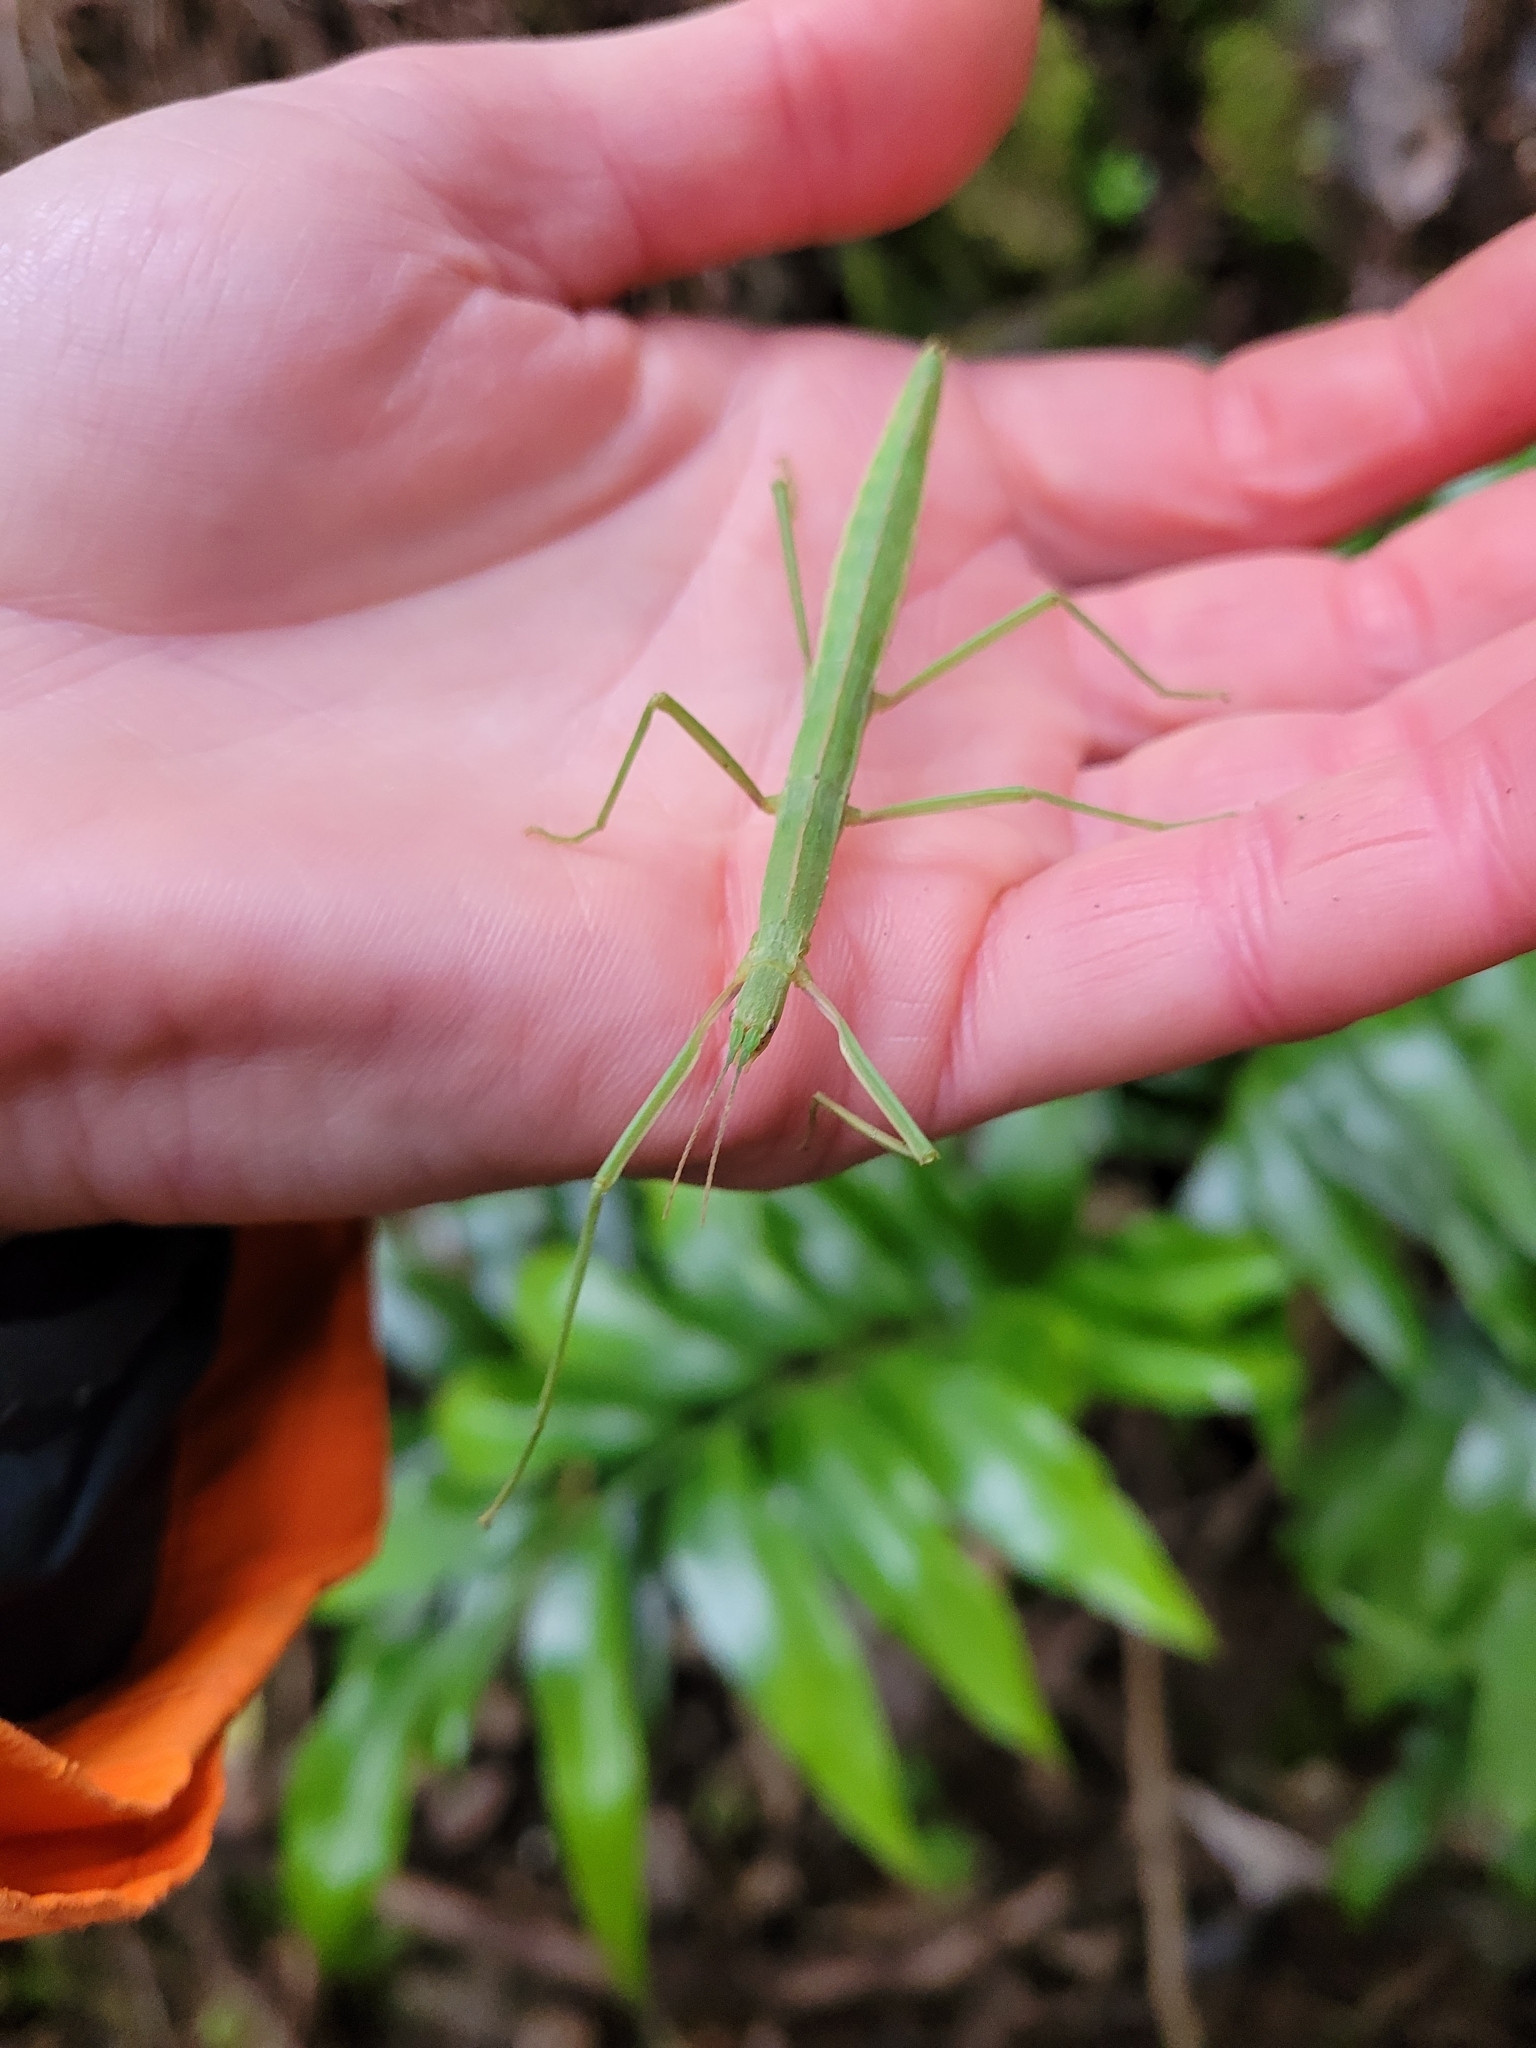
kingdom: Animalia
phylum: Arthropoda
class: Insecta
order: Phasmida
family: Phasmatidae
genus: Tectarchus
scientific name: Tectarchus ovobessus
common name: The rough-skinned ridge-backed stick insect
